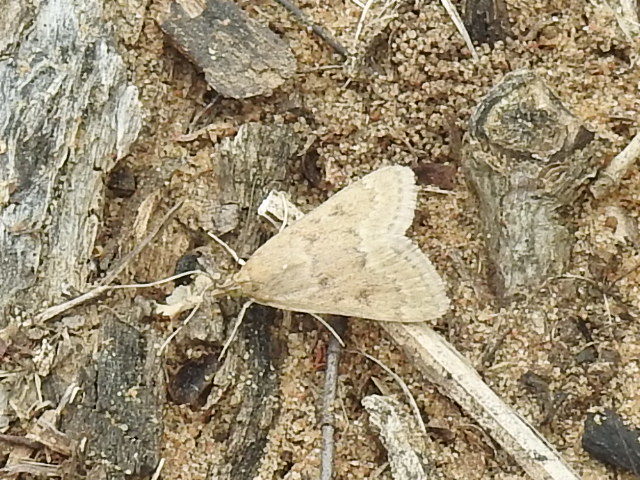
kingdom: Animalia
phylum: Arthropoda
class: Insecta
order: Lepidoptera
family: Crambidae
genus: Achyra
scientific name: Achyra rantalis
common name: Garden webworm
